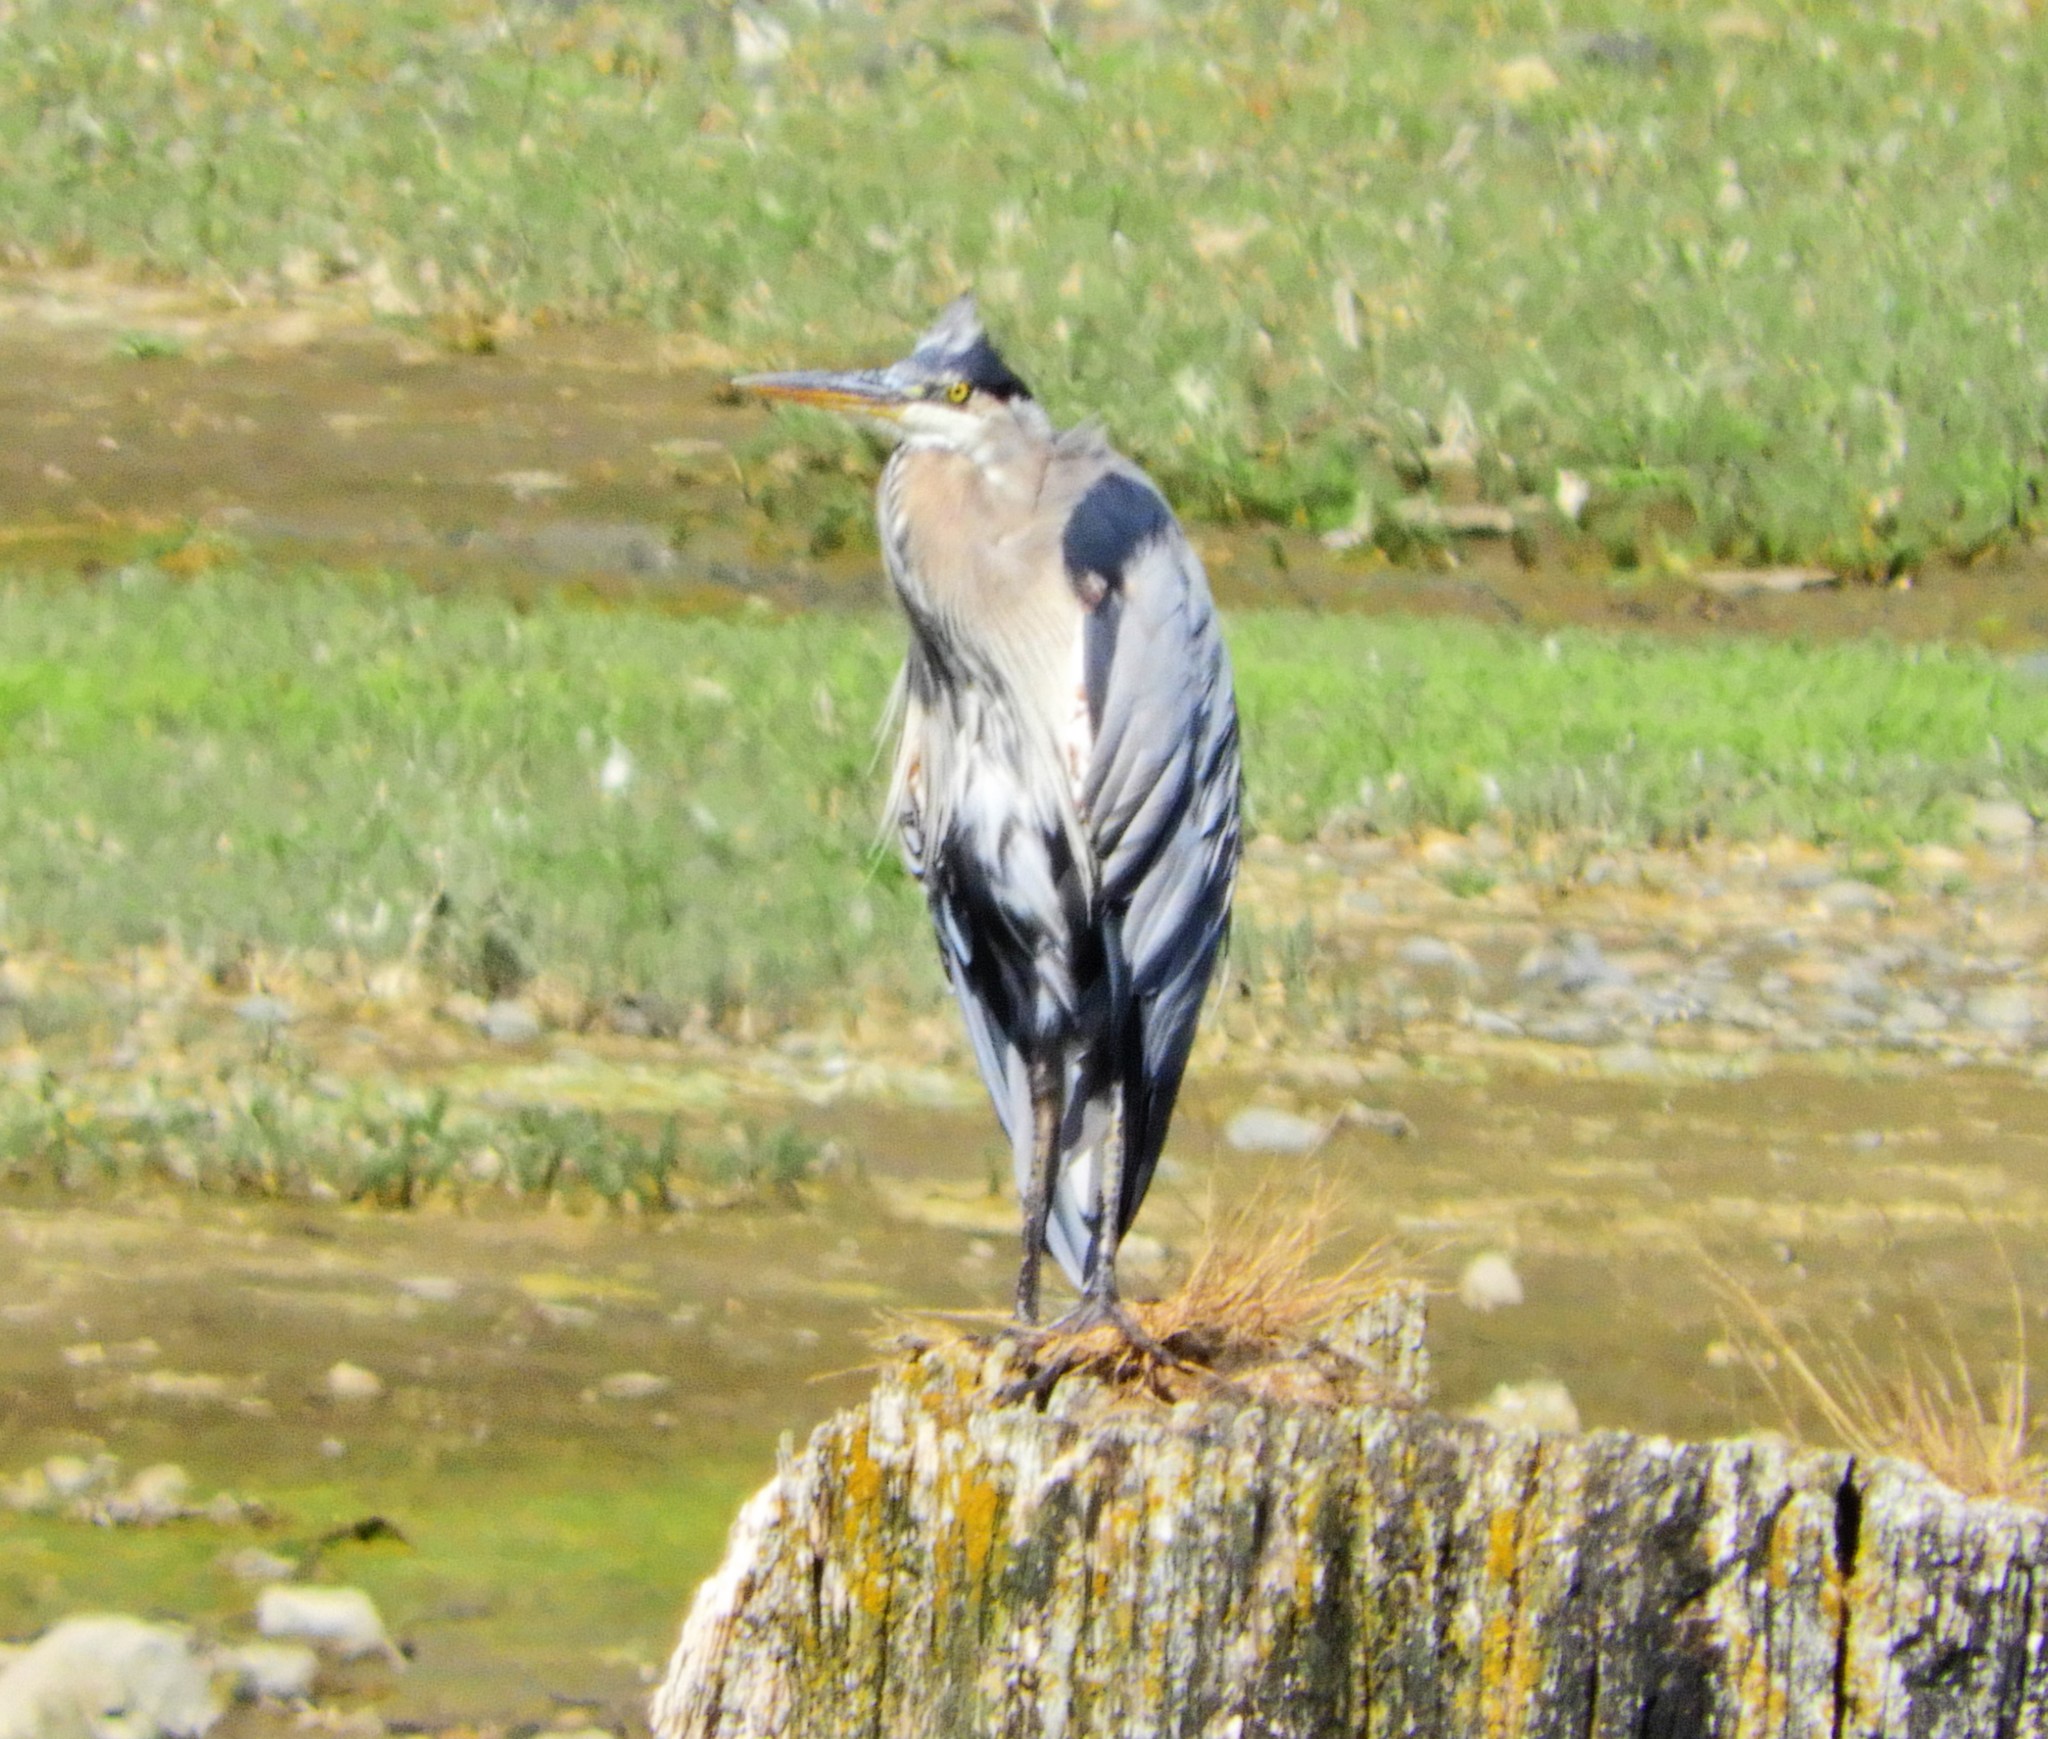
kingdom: Animalia
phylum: Chordata
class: Aves
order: Pelecaniformes
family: Ardeidae
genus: Ardea
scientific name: Ardea herodias
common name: Great blue heron
